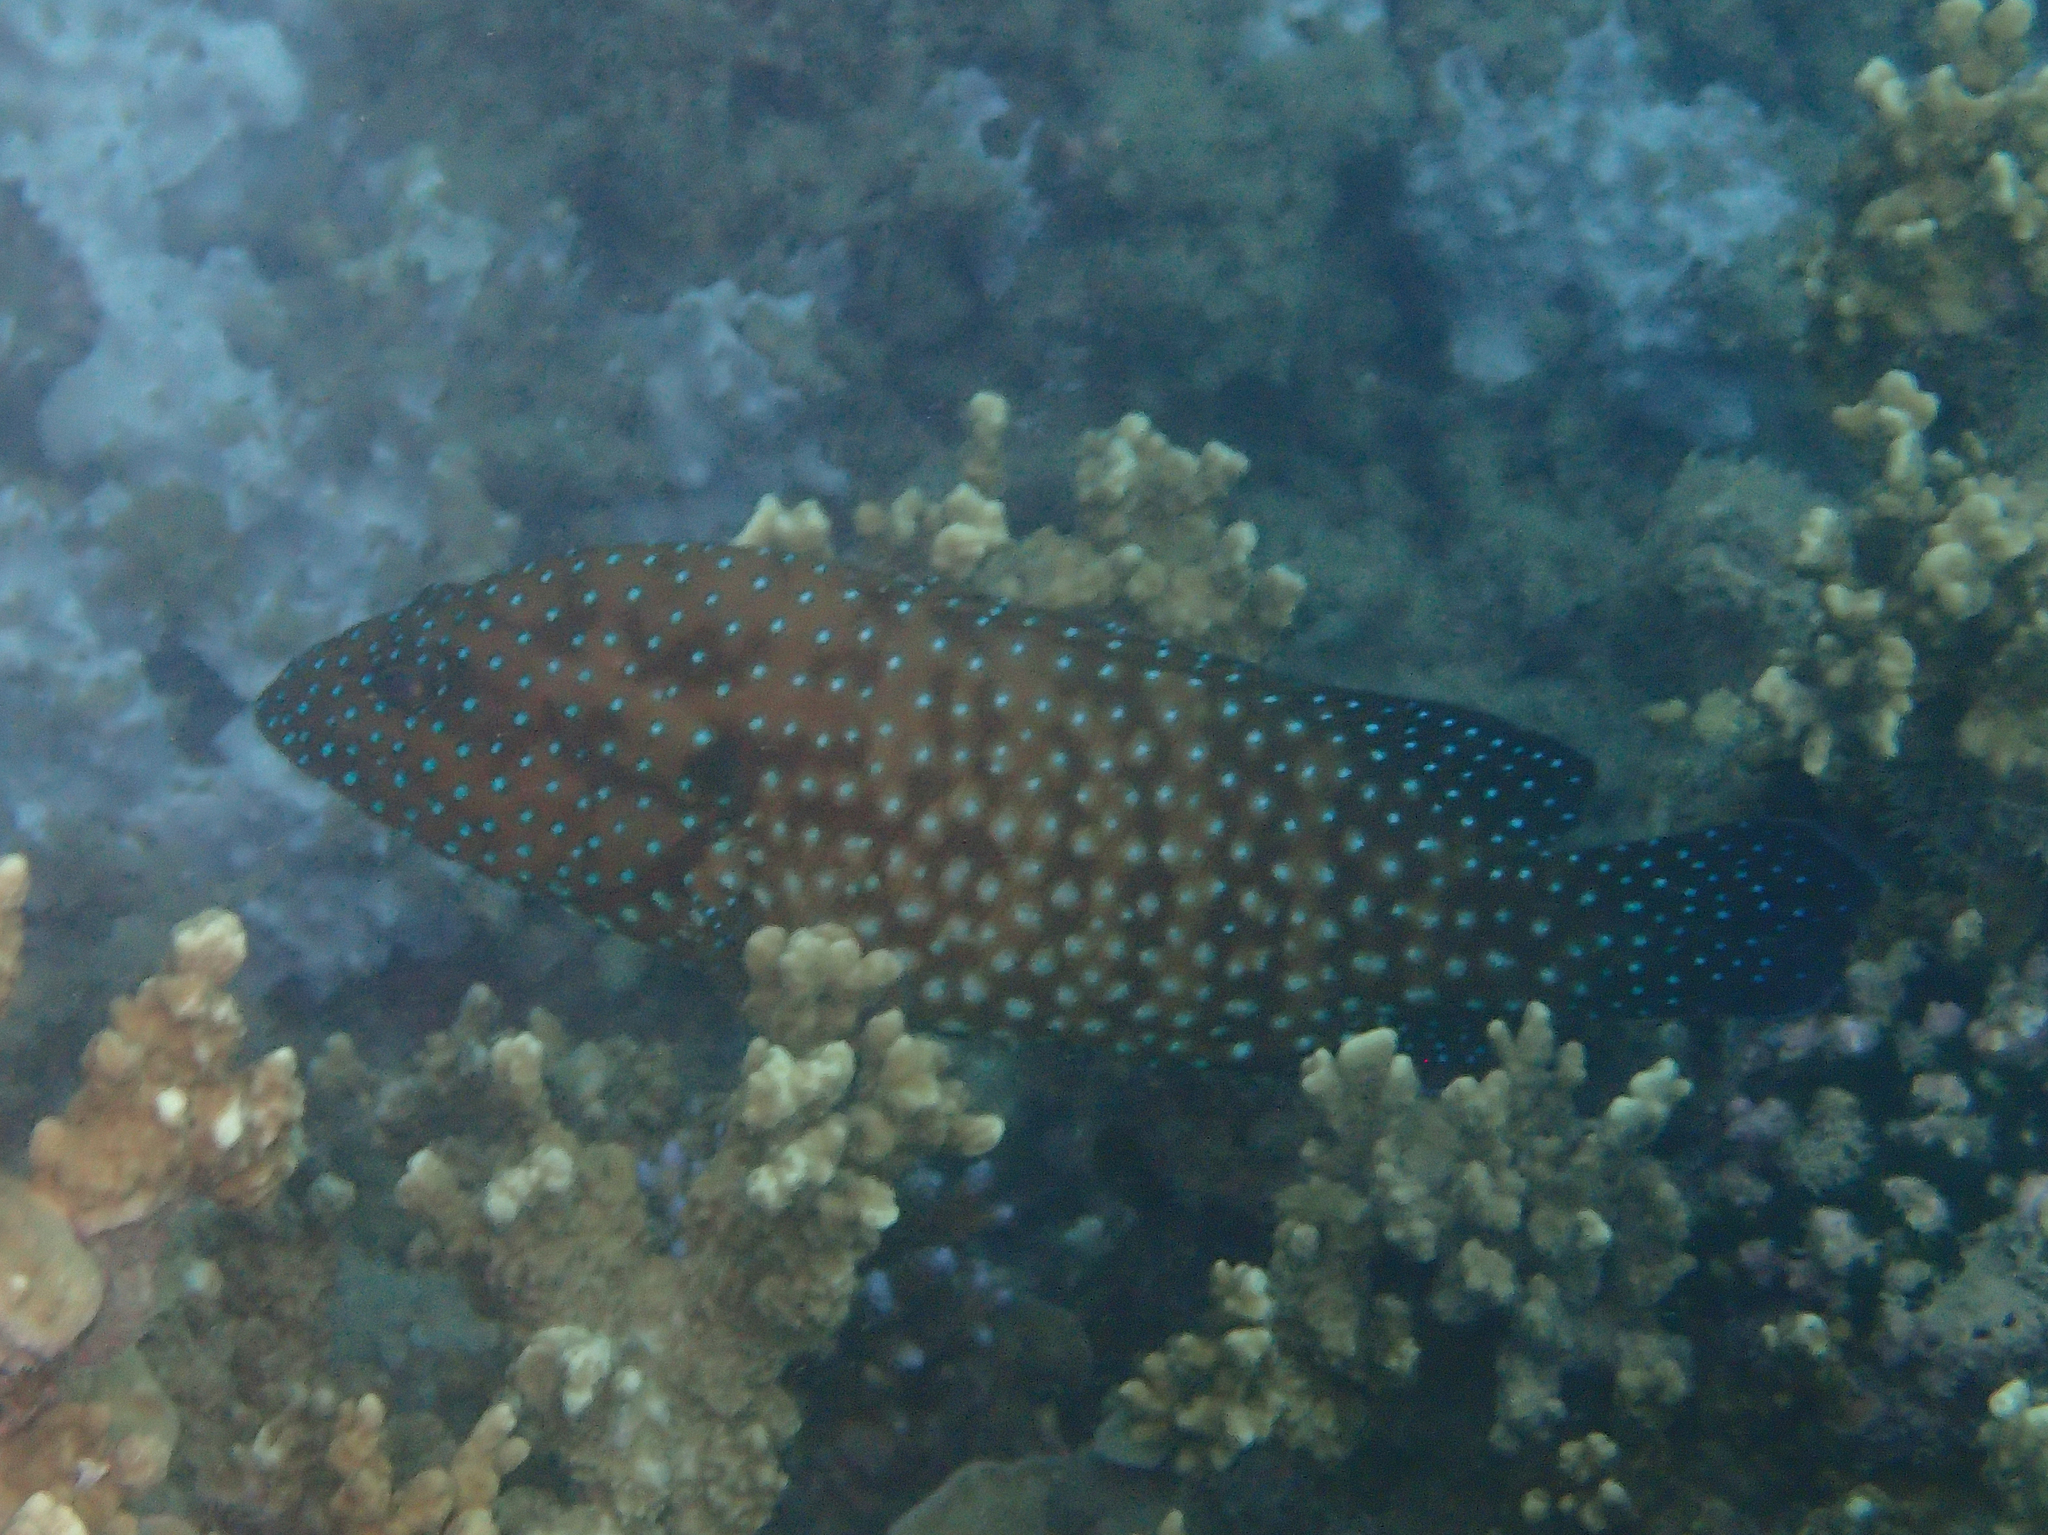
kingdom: Animalia
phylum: Chordata
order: Perciformes
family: Serranidae
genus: Cephalopholis
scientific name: Cephalopholis cyanostigma
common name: Bluespotted hind
